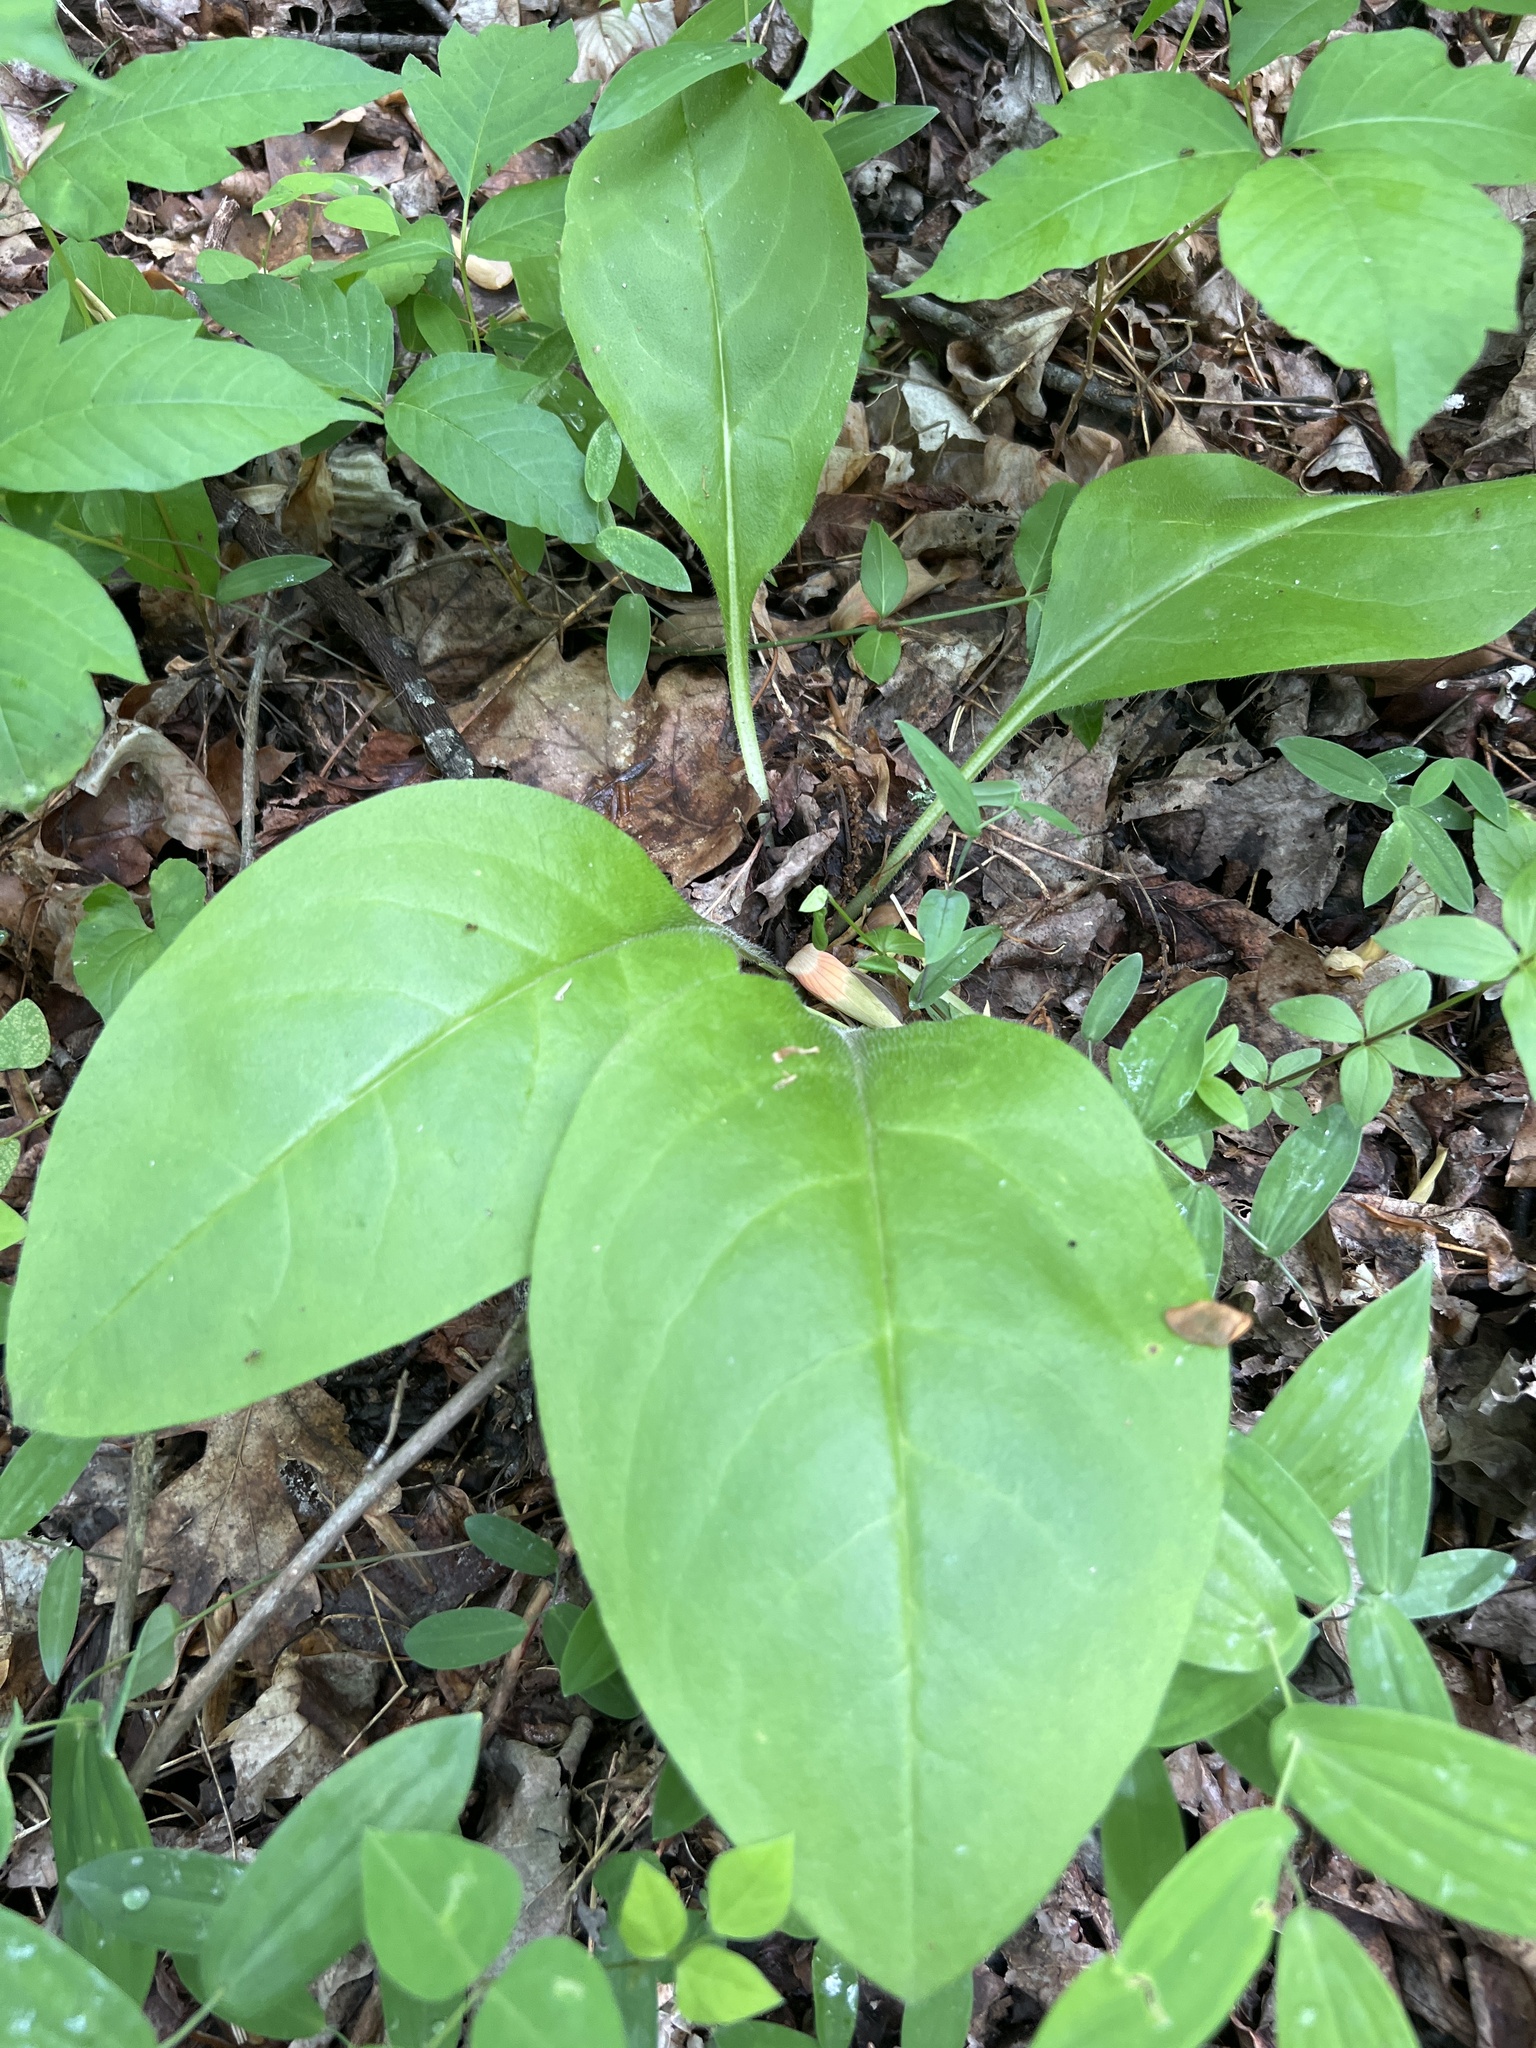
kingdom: Plantae
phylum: Tracheophyta
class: Magnoliopsida
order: Boraginales
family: Boraginaceae
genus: Andersonglossum
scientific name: Andersonglossum virginianum
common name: Wild comfrey
